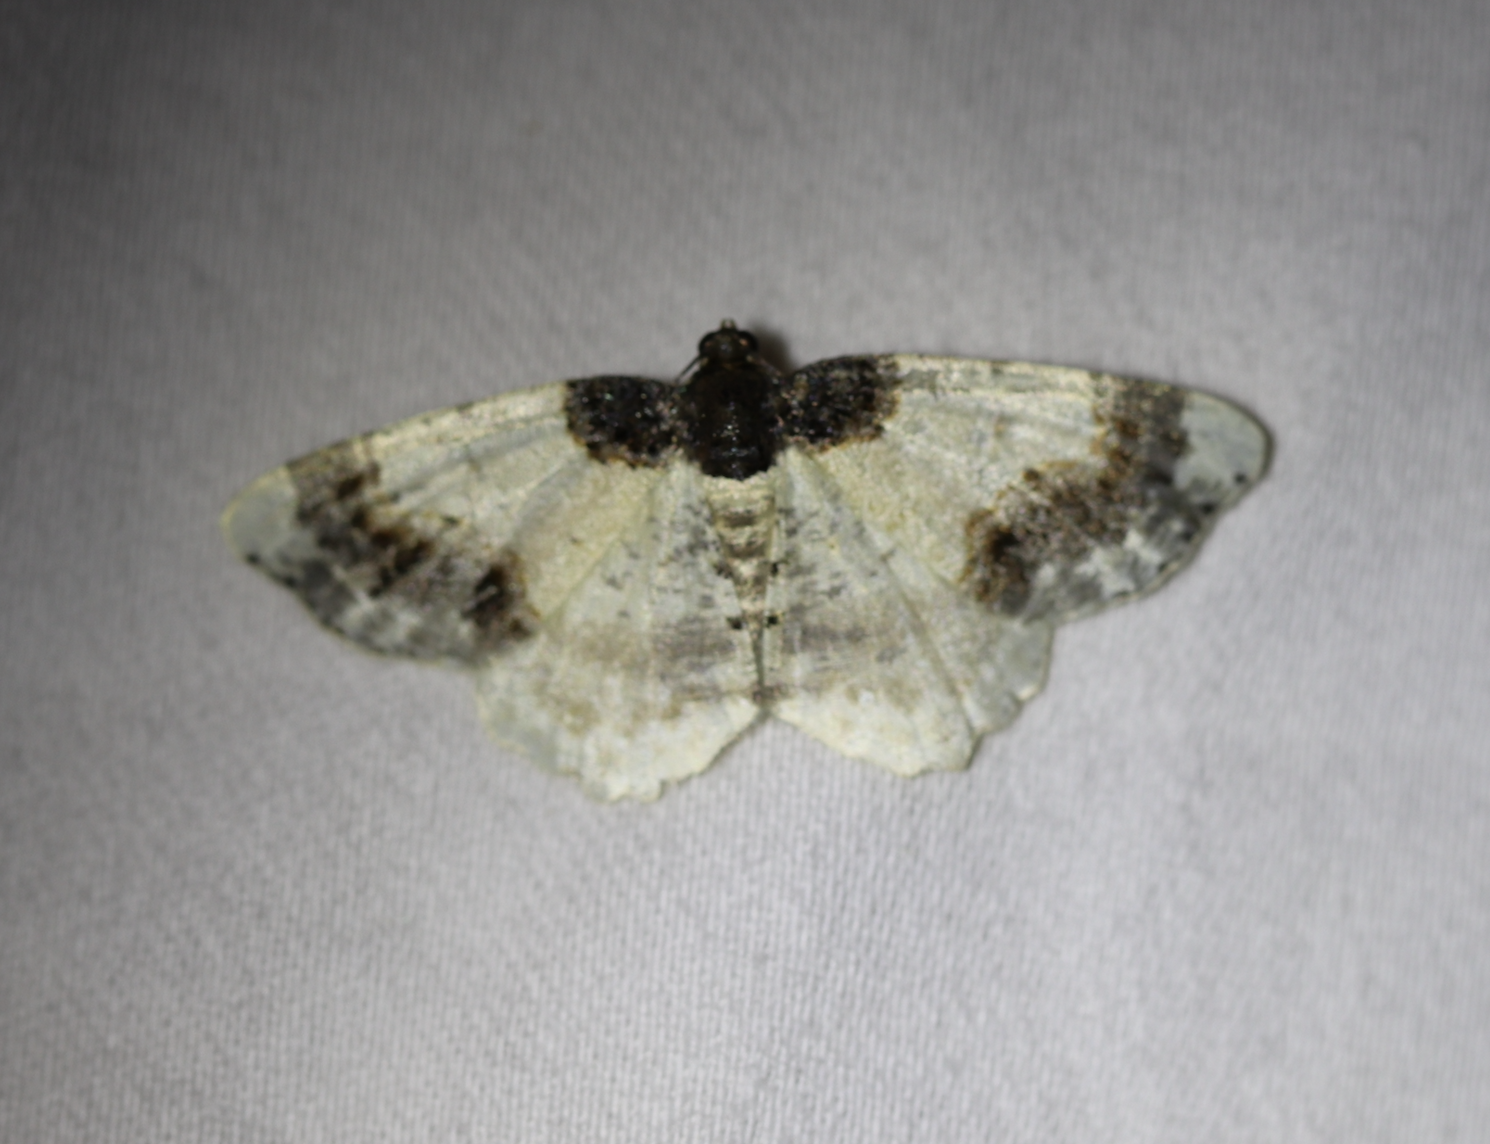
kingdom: Animalia
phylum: Arthropoda
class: Insecta
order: Lepidoptera
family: Geometridae
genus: Ligdia
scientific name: Ligdia adustata
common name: Scorched carpet
